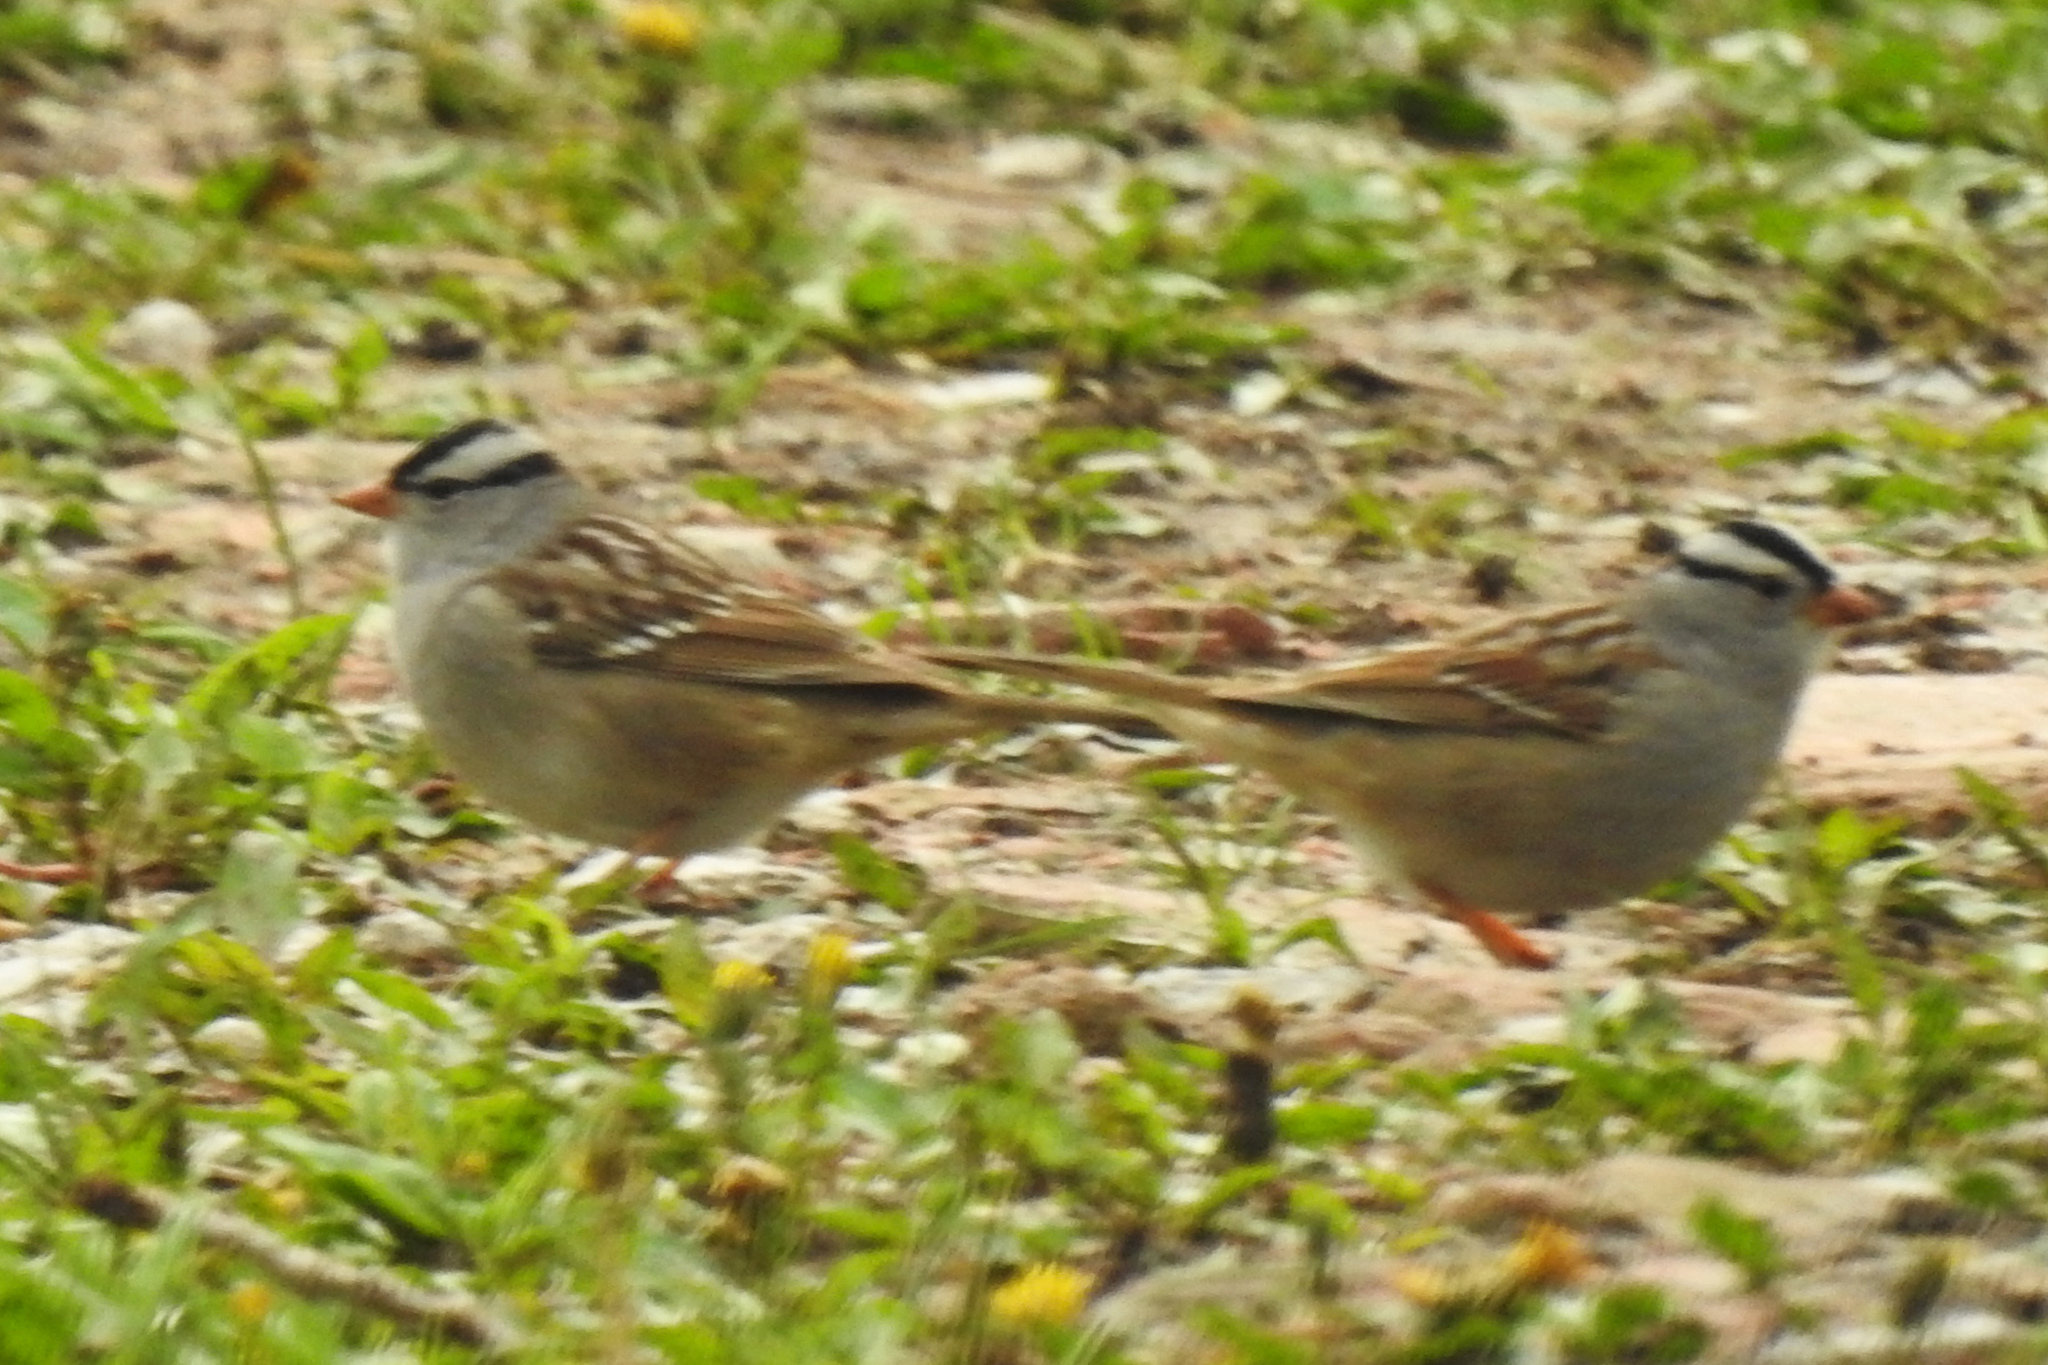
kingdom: Animalia
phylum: Chordata
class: Aves
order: Passeriformes
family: Passerellidae
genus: Zonotrichia
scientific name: Zonotrichia leucophrys
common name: White-crowned sparrow
